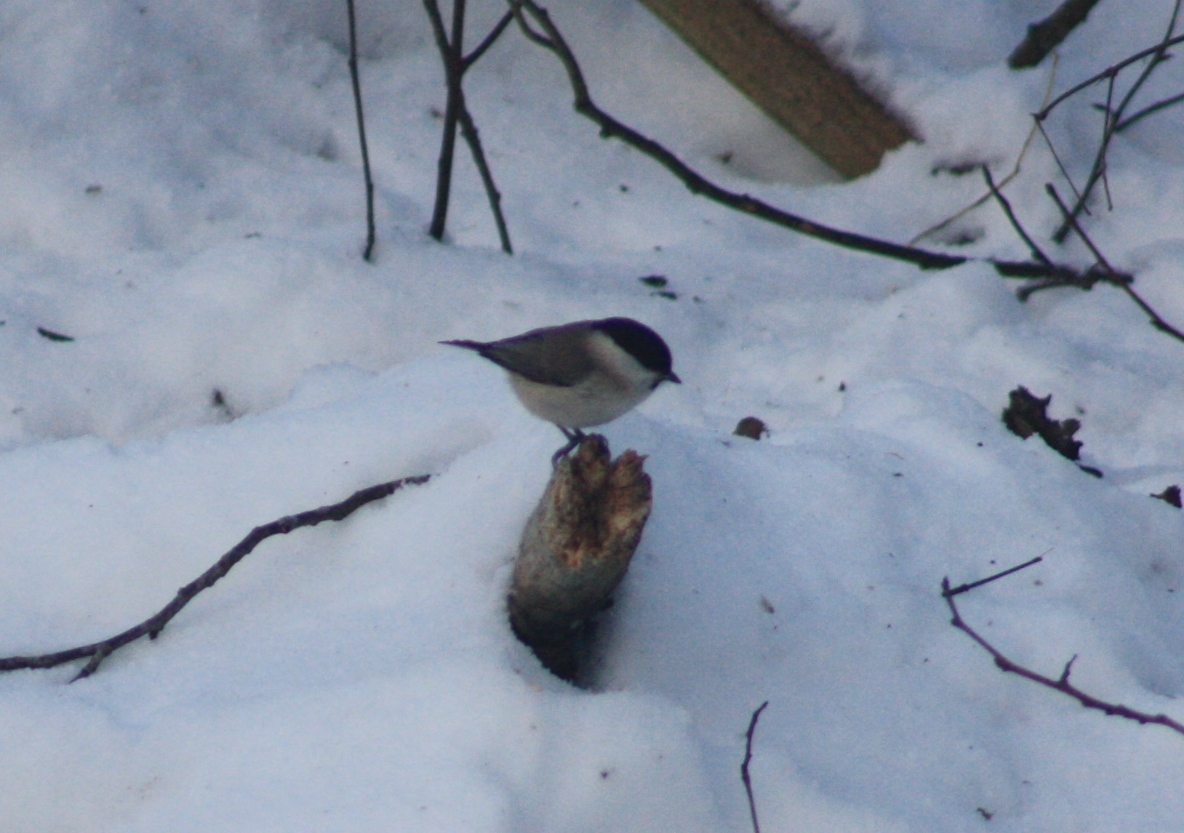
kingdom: Animalia
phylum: Chordata
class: Aves
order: Passeriformes
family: Paridae
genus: Poecile
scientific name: Poecile palustris
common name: Marsh tit
